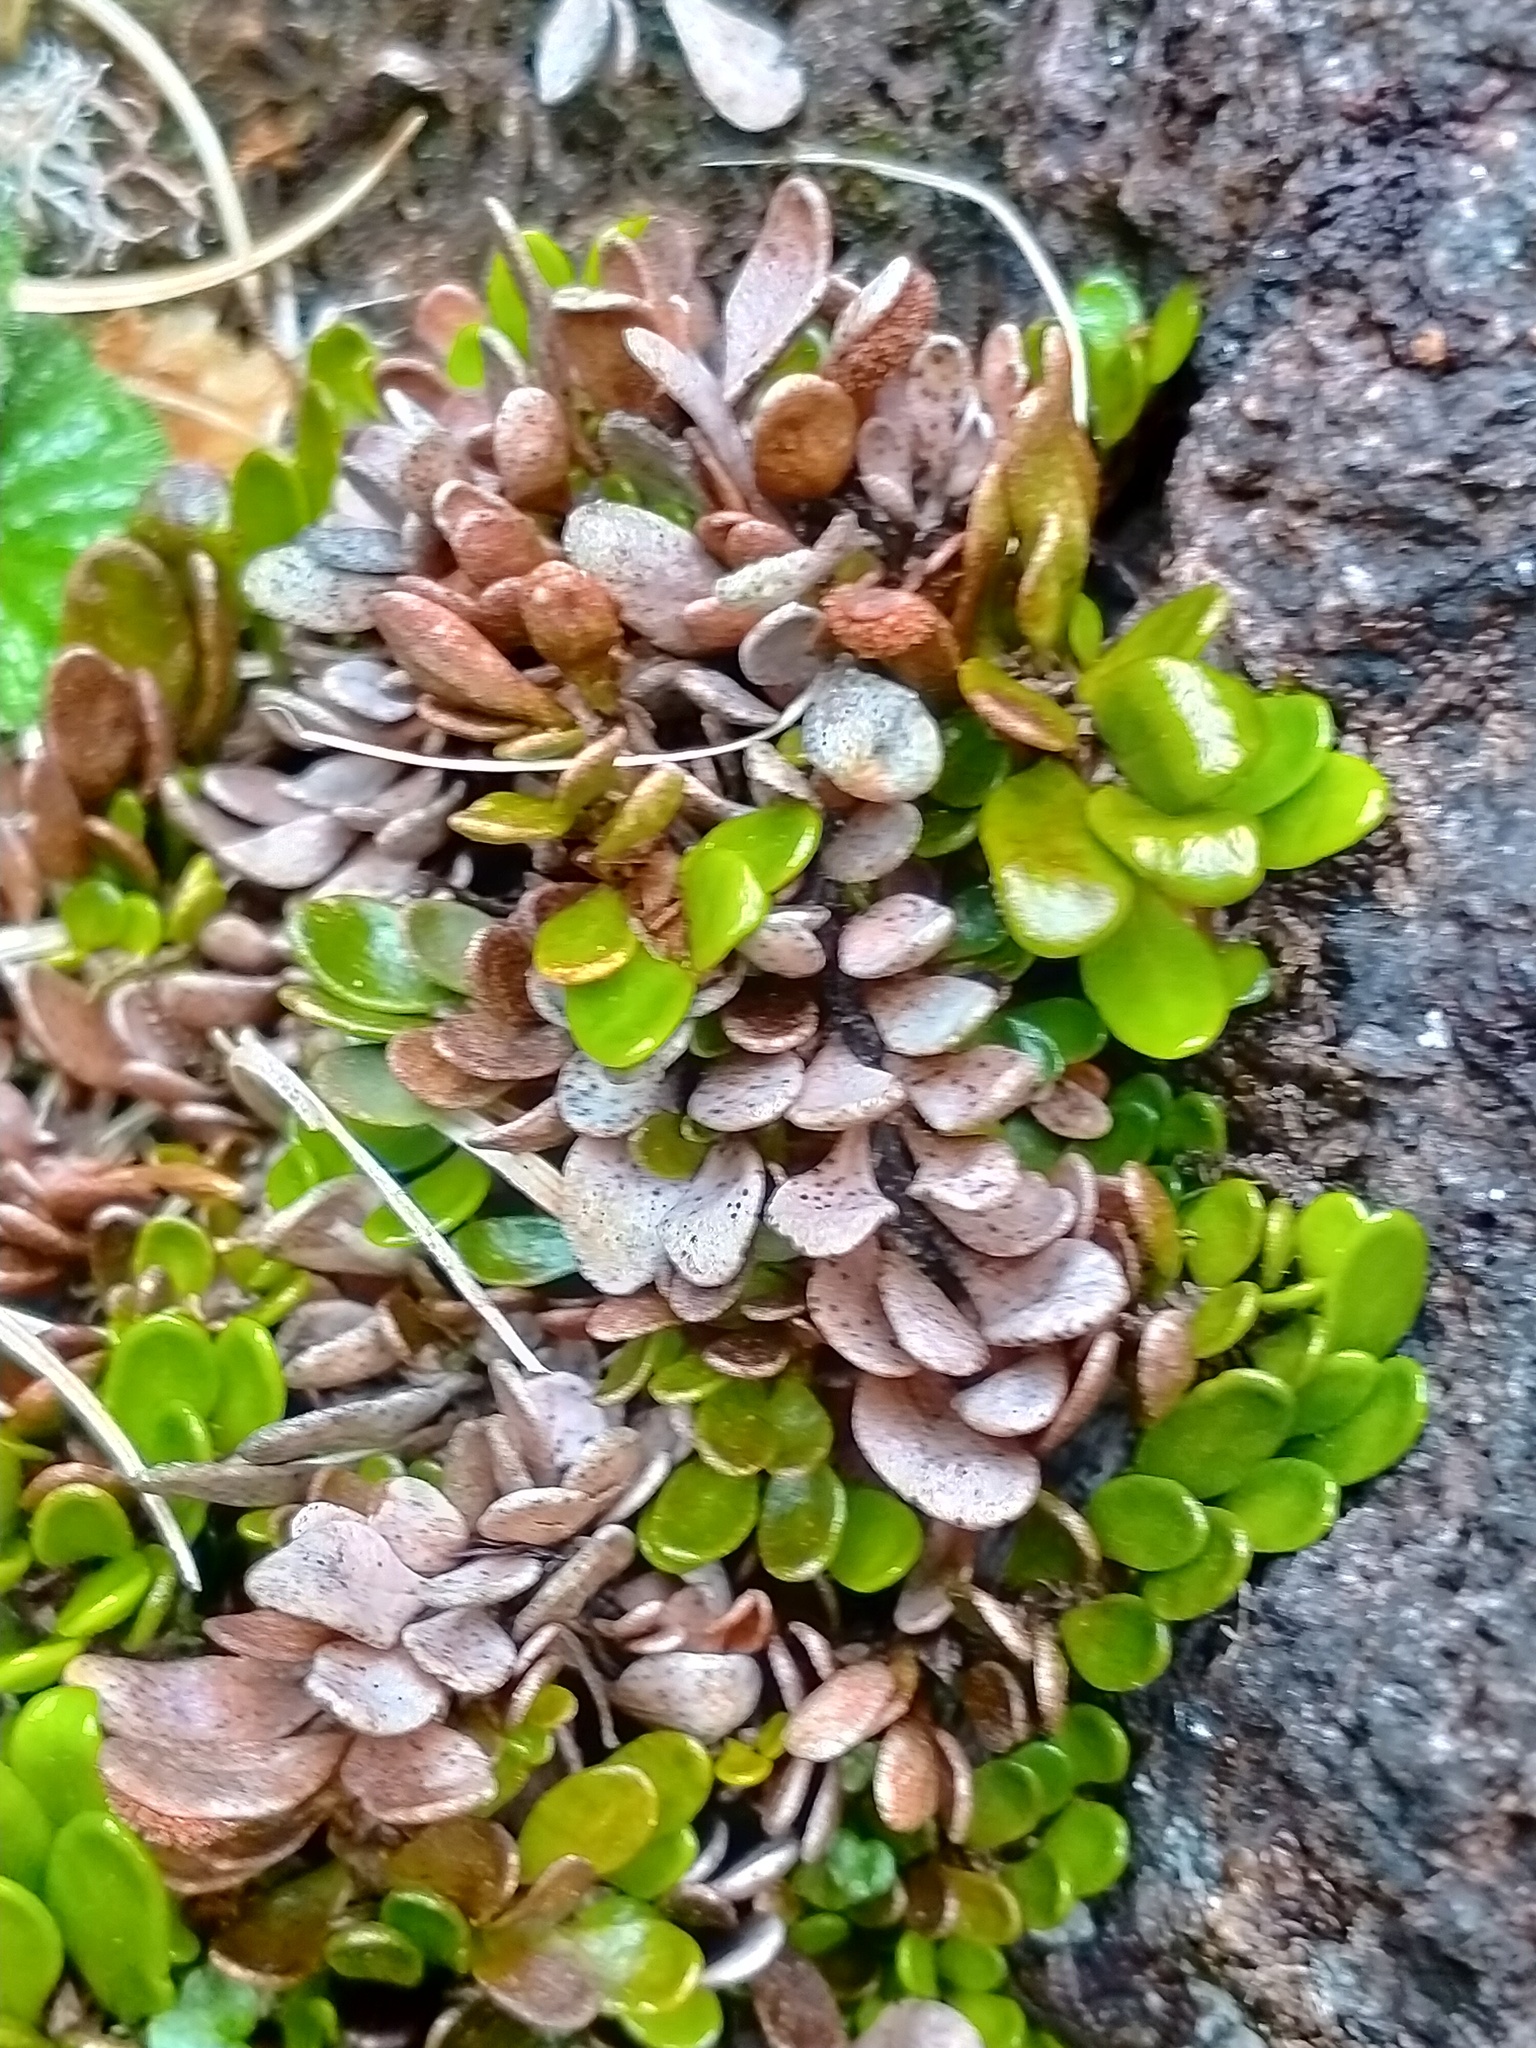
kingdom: Plantae
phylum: Tracheophyta
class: Polypodiopsida
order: Polypodiales
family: Polypodiaceae
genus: Notogrammitis
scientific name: Notogrammitis crassior
